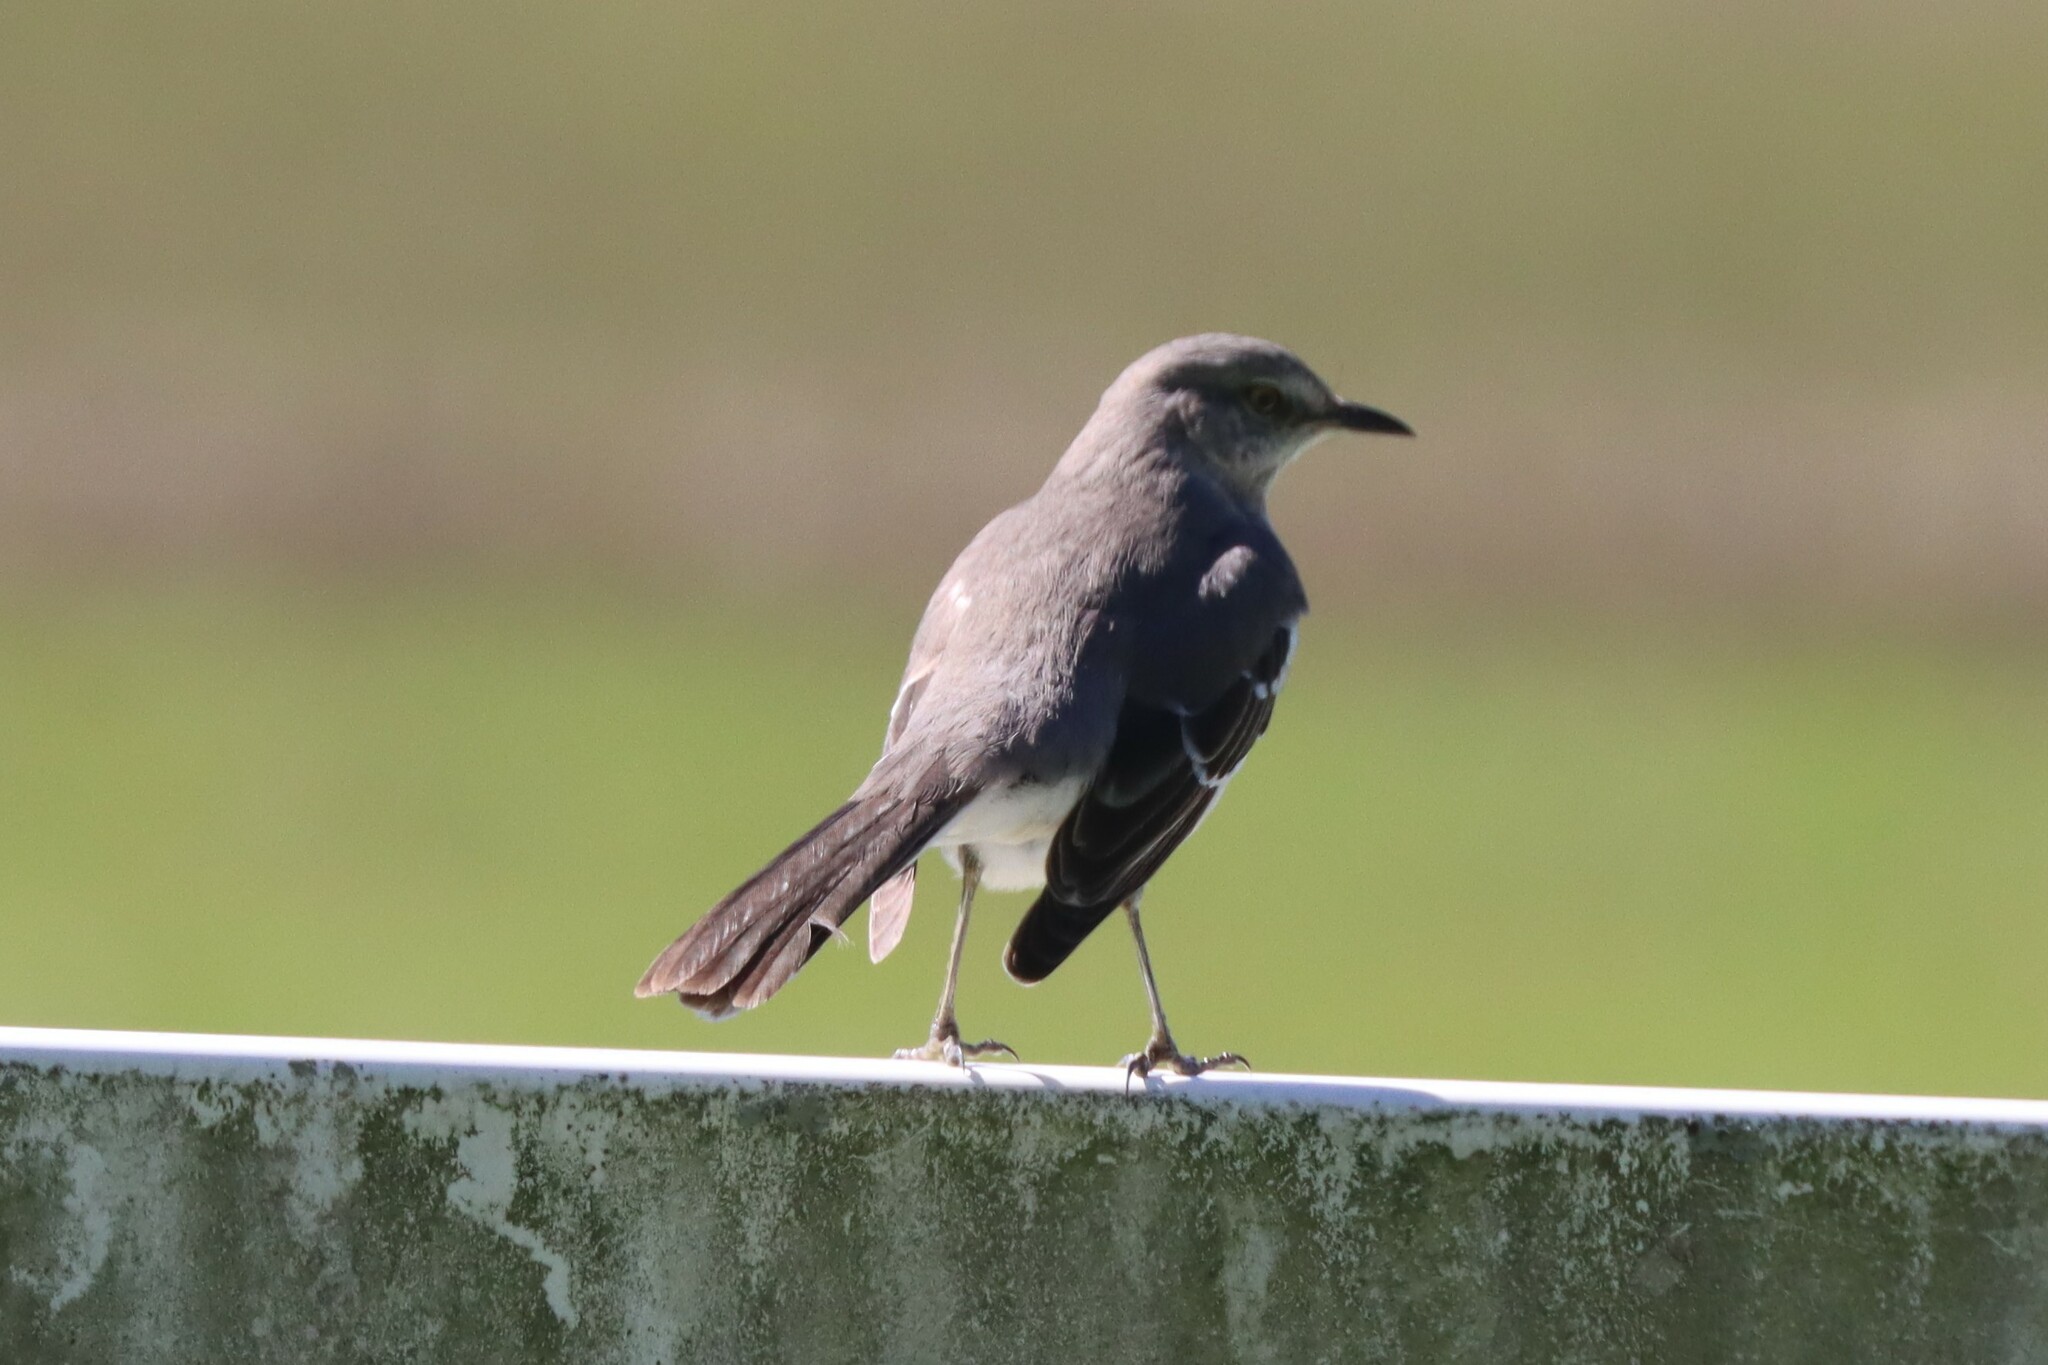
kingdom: Animalia
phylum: Chordata
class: Aves
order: Passeriformes
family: Mimidae
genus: Mimus
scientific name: Mimus polyglottos
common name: Northern mockingbird
